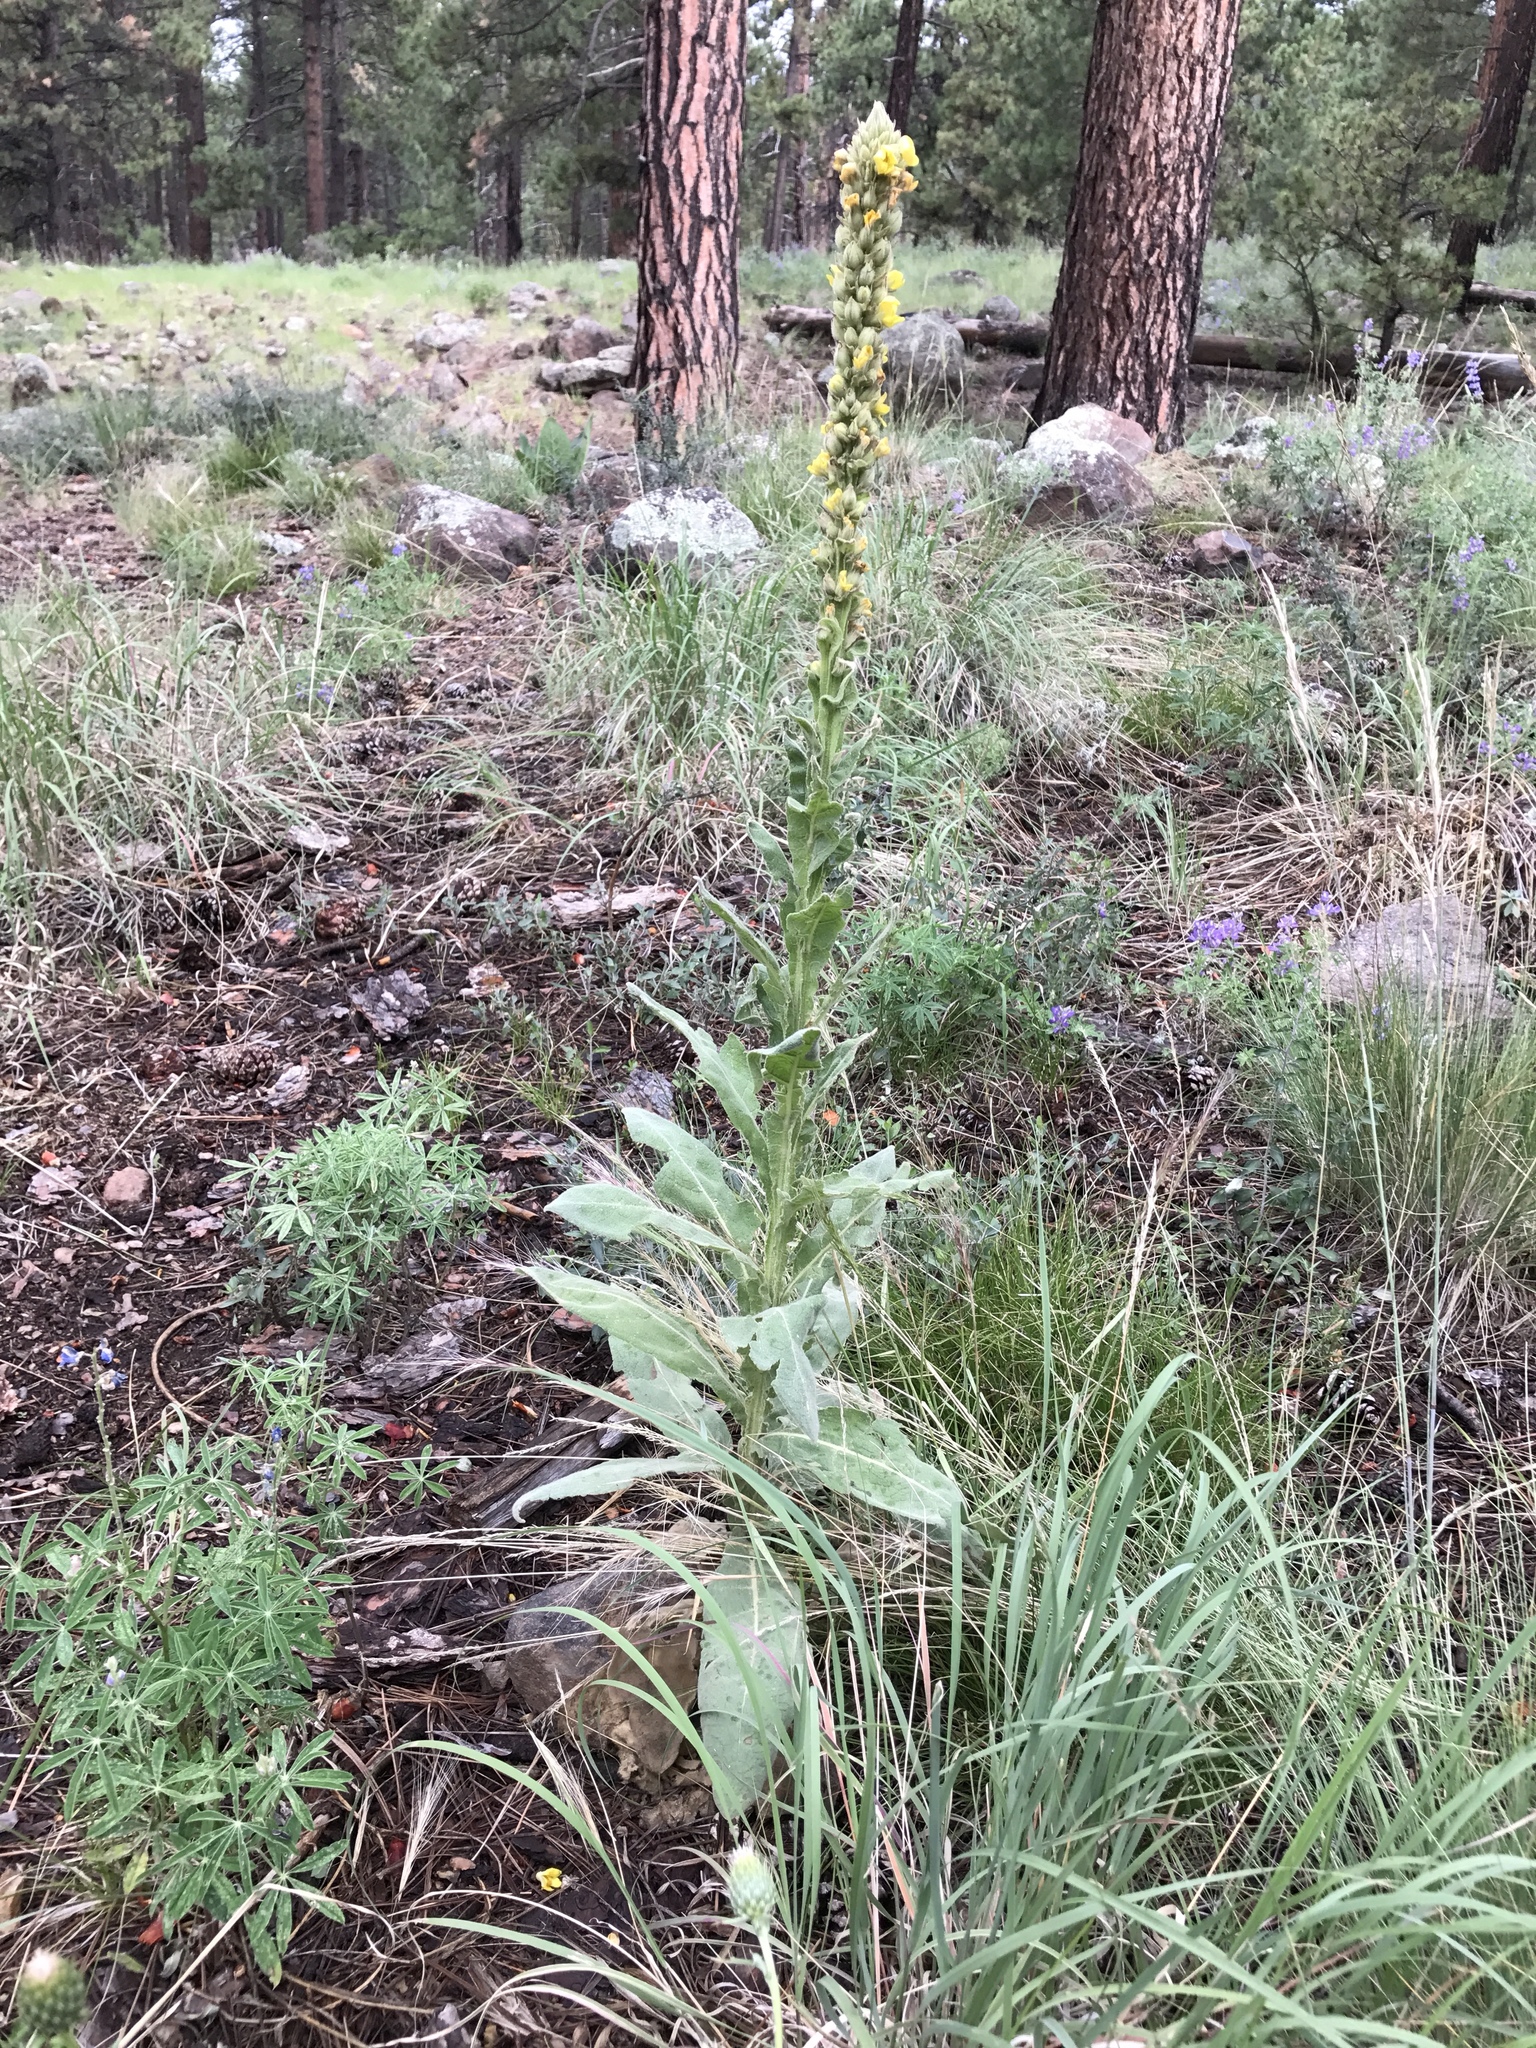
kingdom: Plantae
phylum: Tracheophyta
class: Magnoliopsida
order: Lamiales
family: Scrophulariaceae
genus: Verbascum
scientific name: Verbascum thapsus
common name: Common mullein
